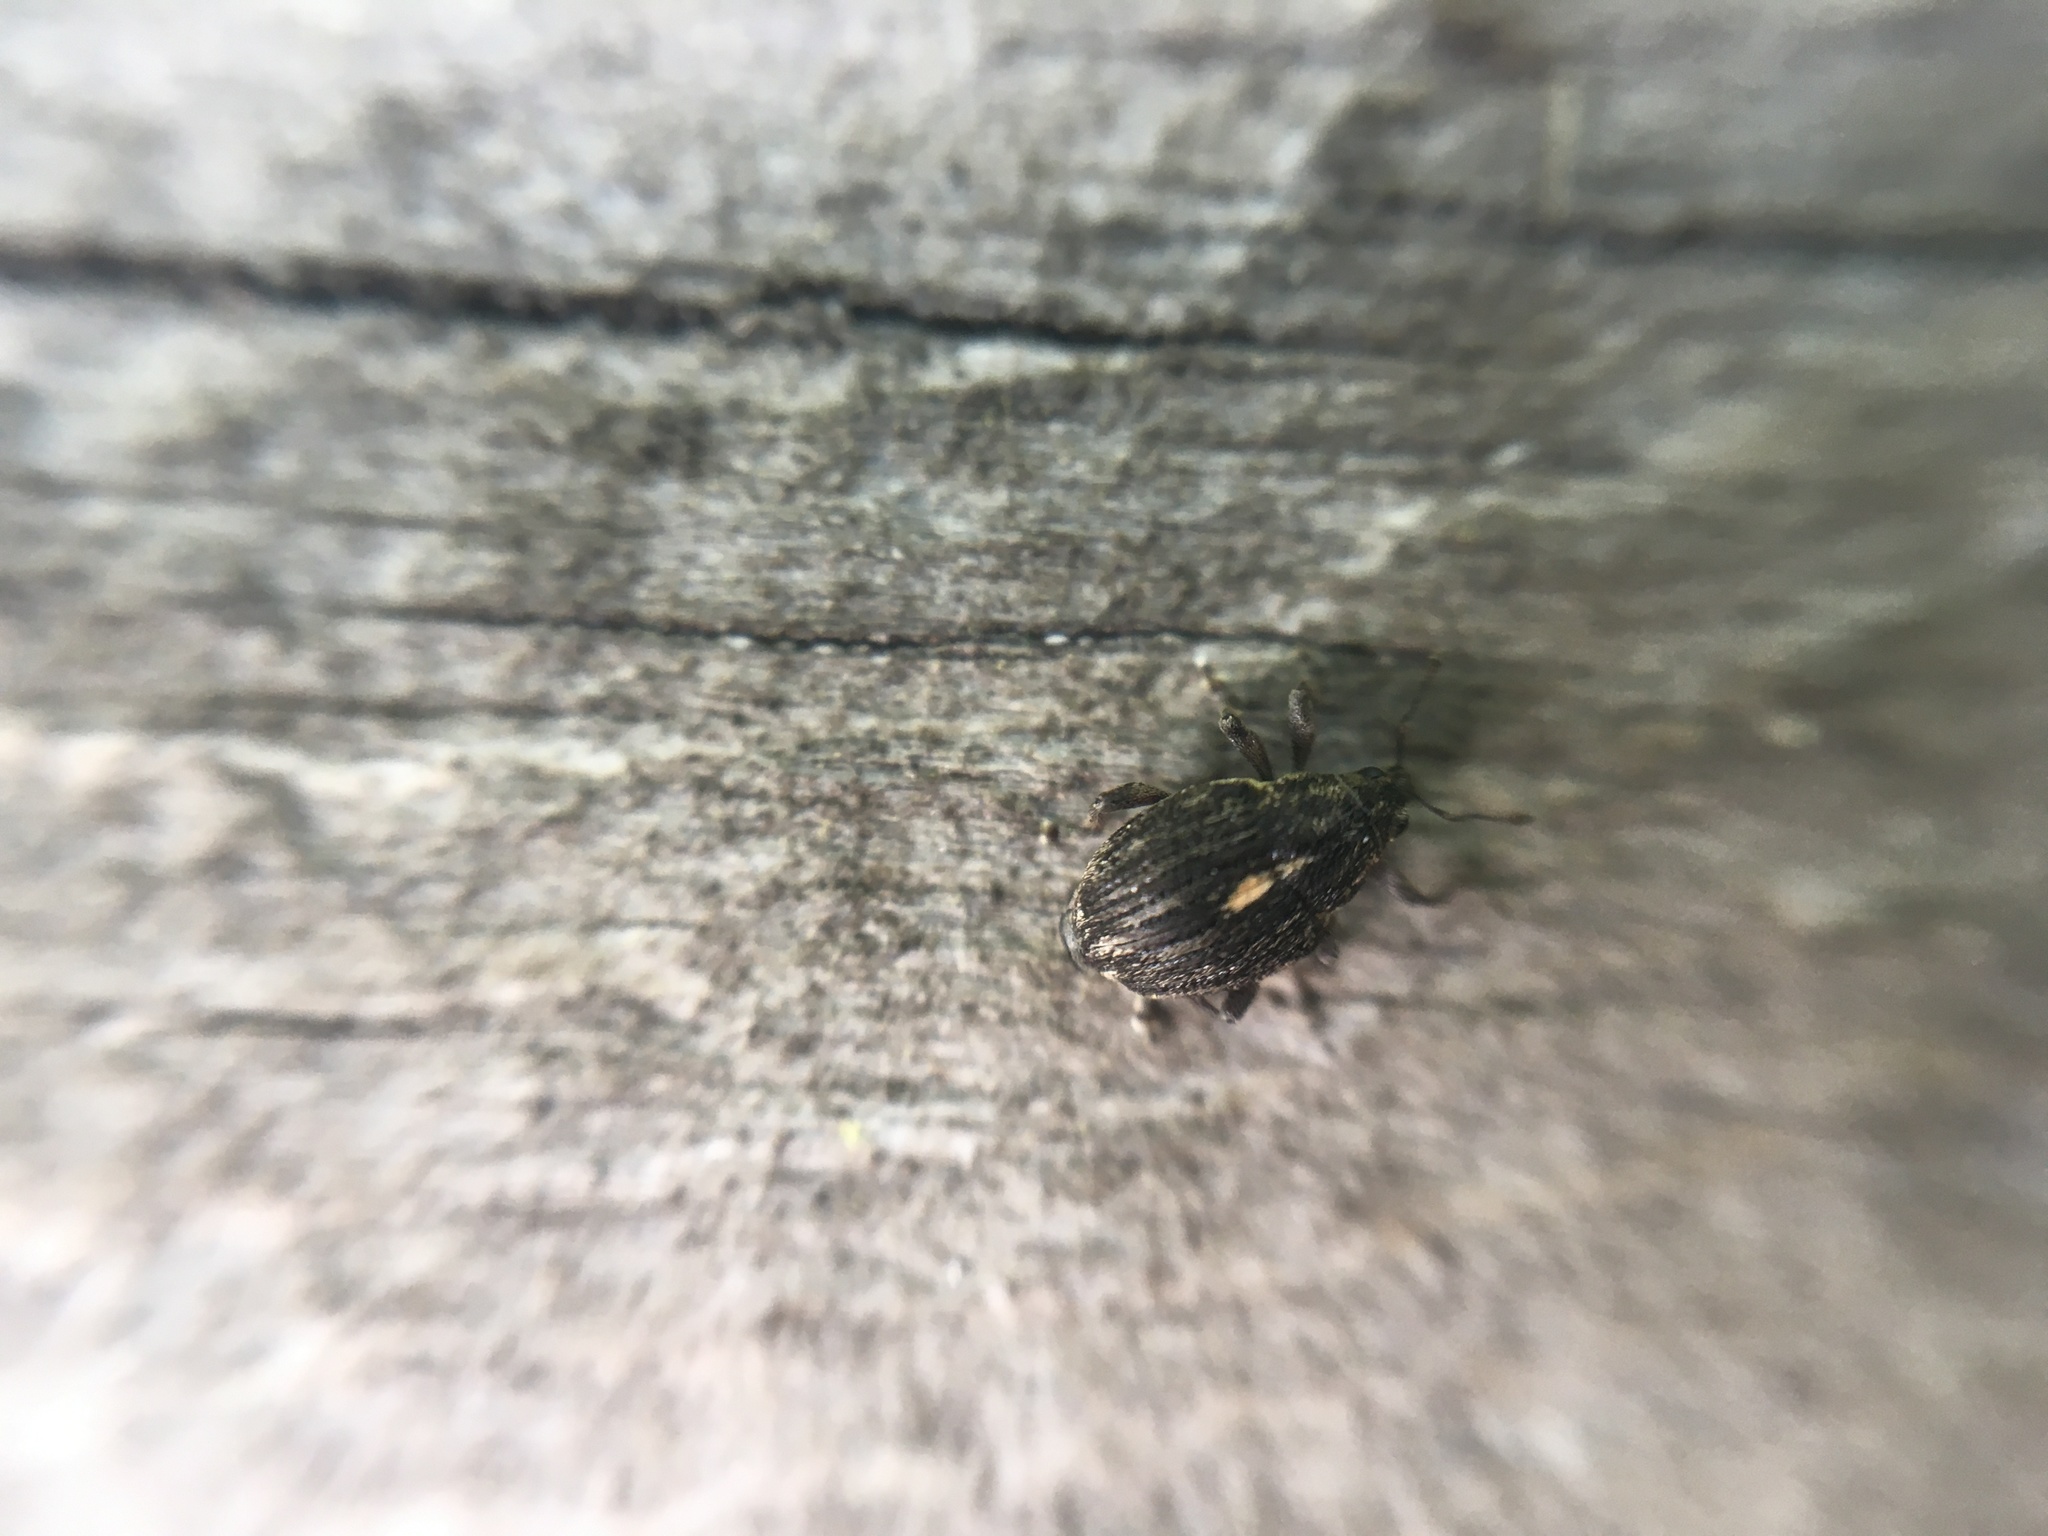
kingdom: Animalia
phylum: Arthropoda
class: Insecta
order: Coleoptera
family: Curculionidae
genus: Rhinoncus
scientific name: Rhinoncus leucostigma
